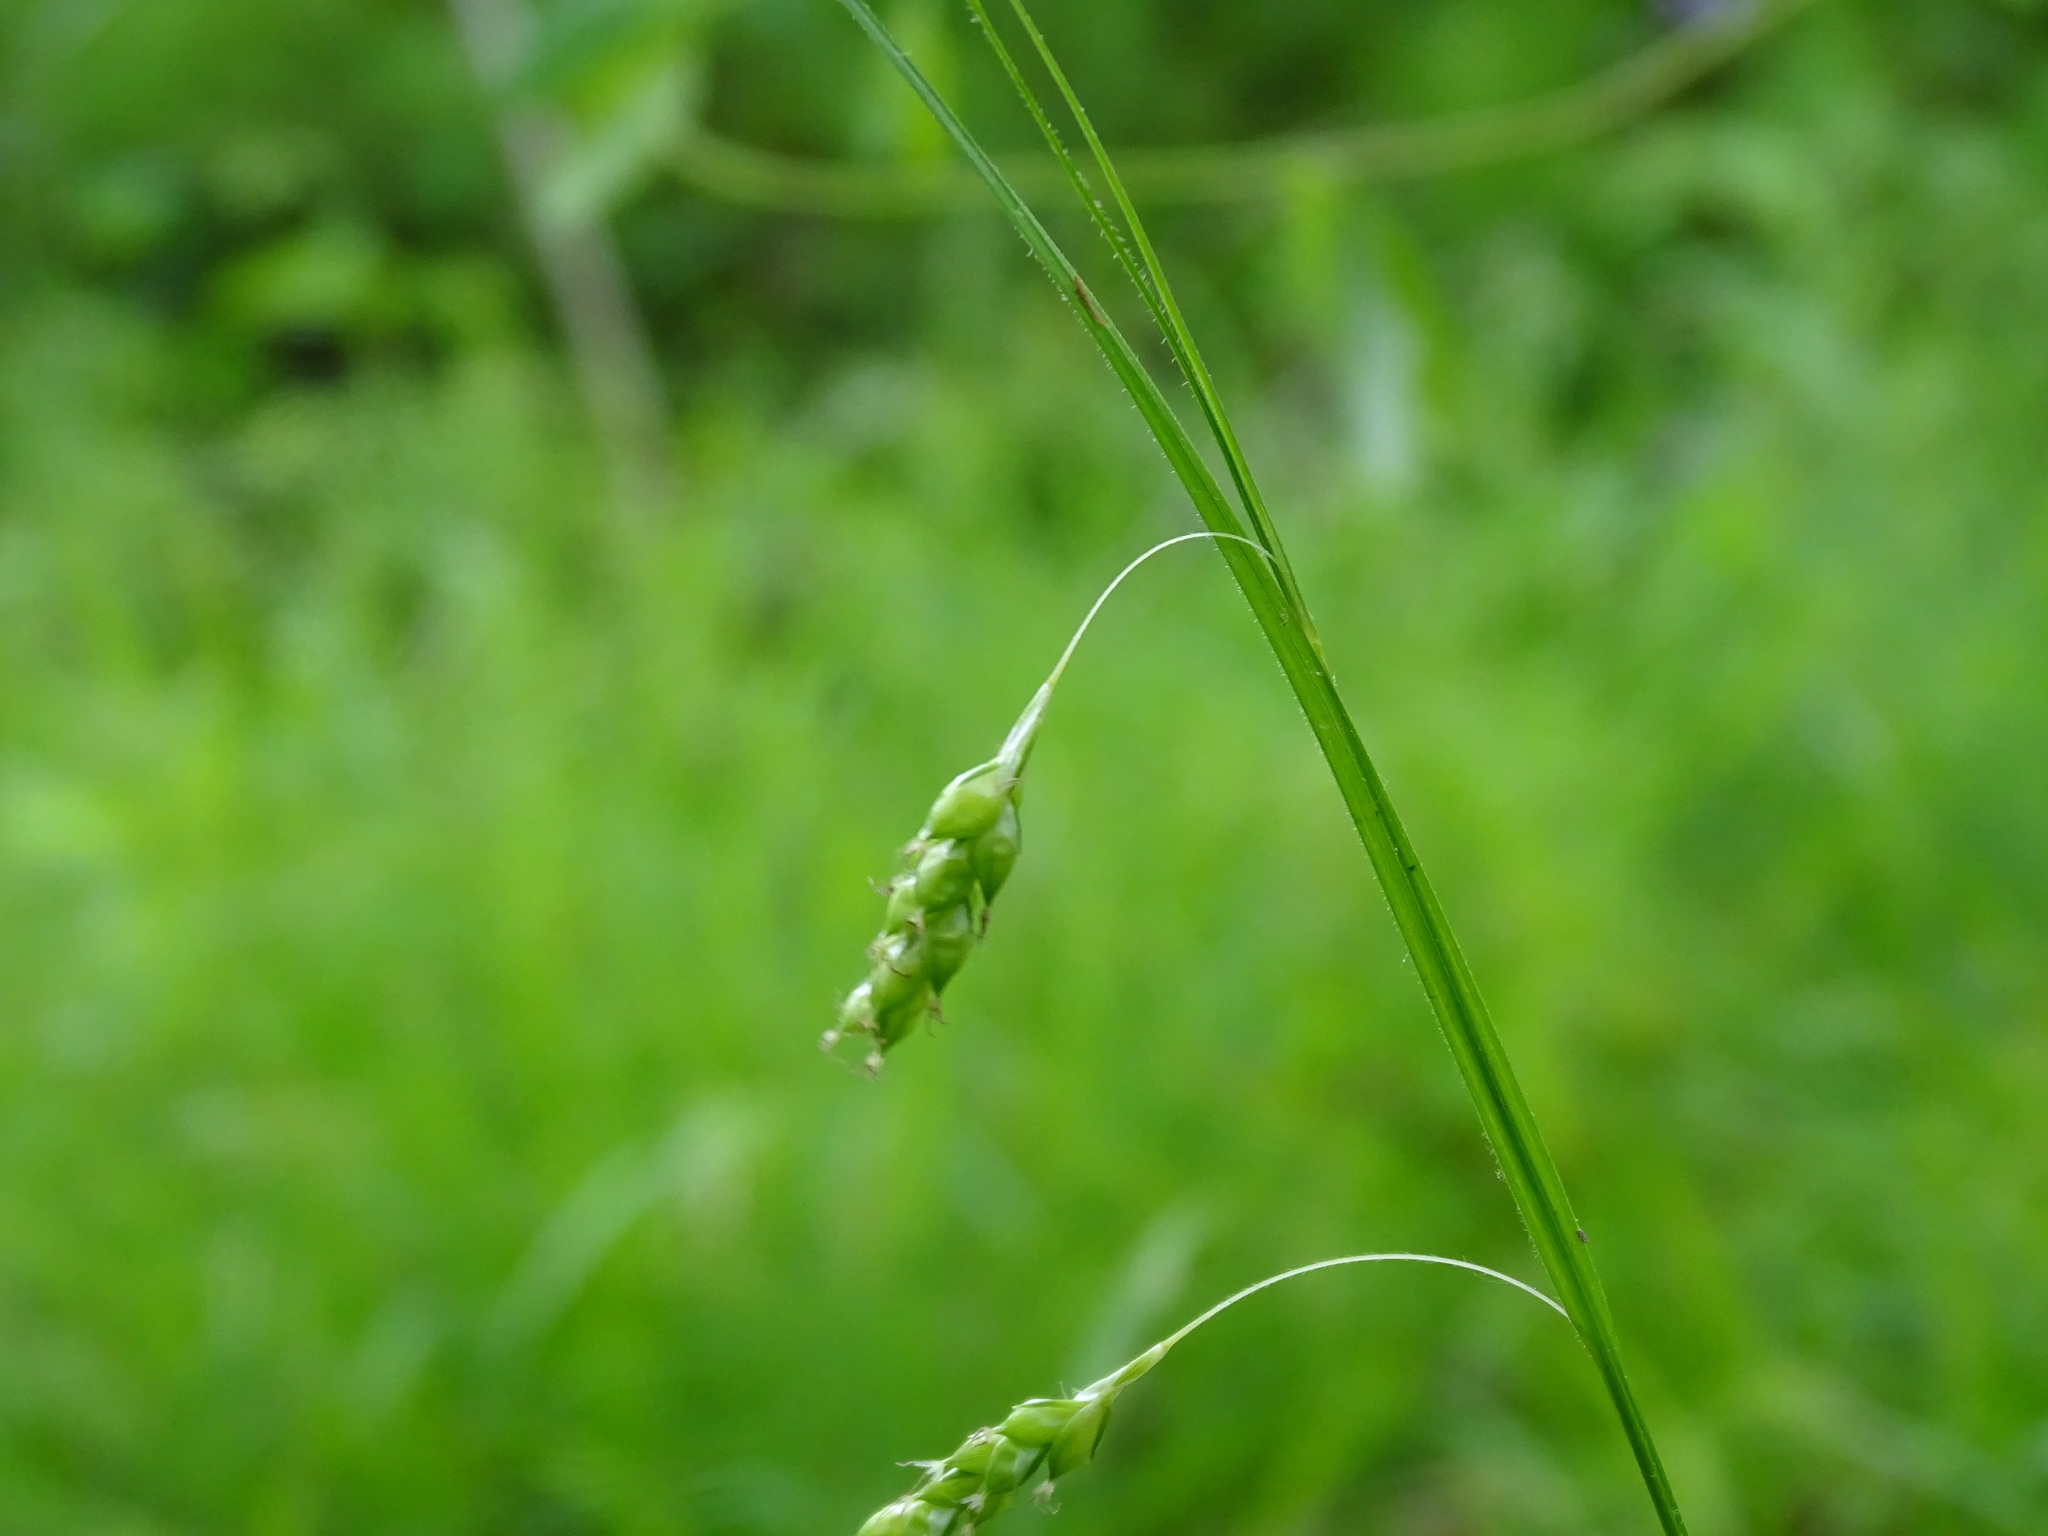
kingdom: Plantae
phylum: Tracheophyta
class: Liliopsida
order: Poales
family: Cyperaceae
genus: Carex
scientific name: Carex formosa
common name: Awnless graceful sedge
